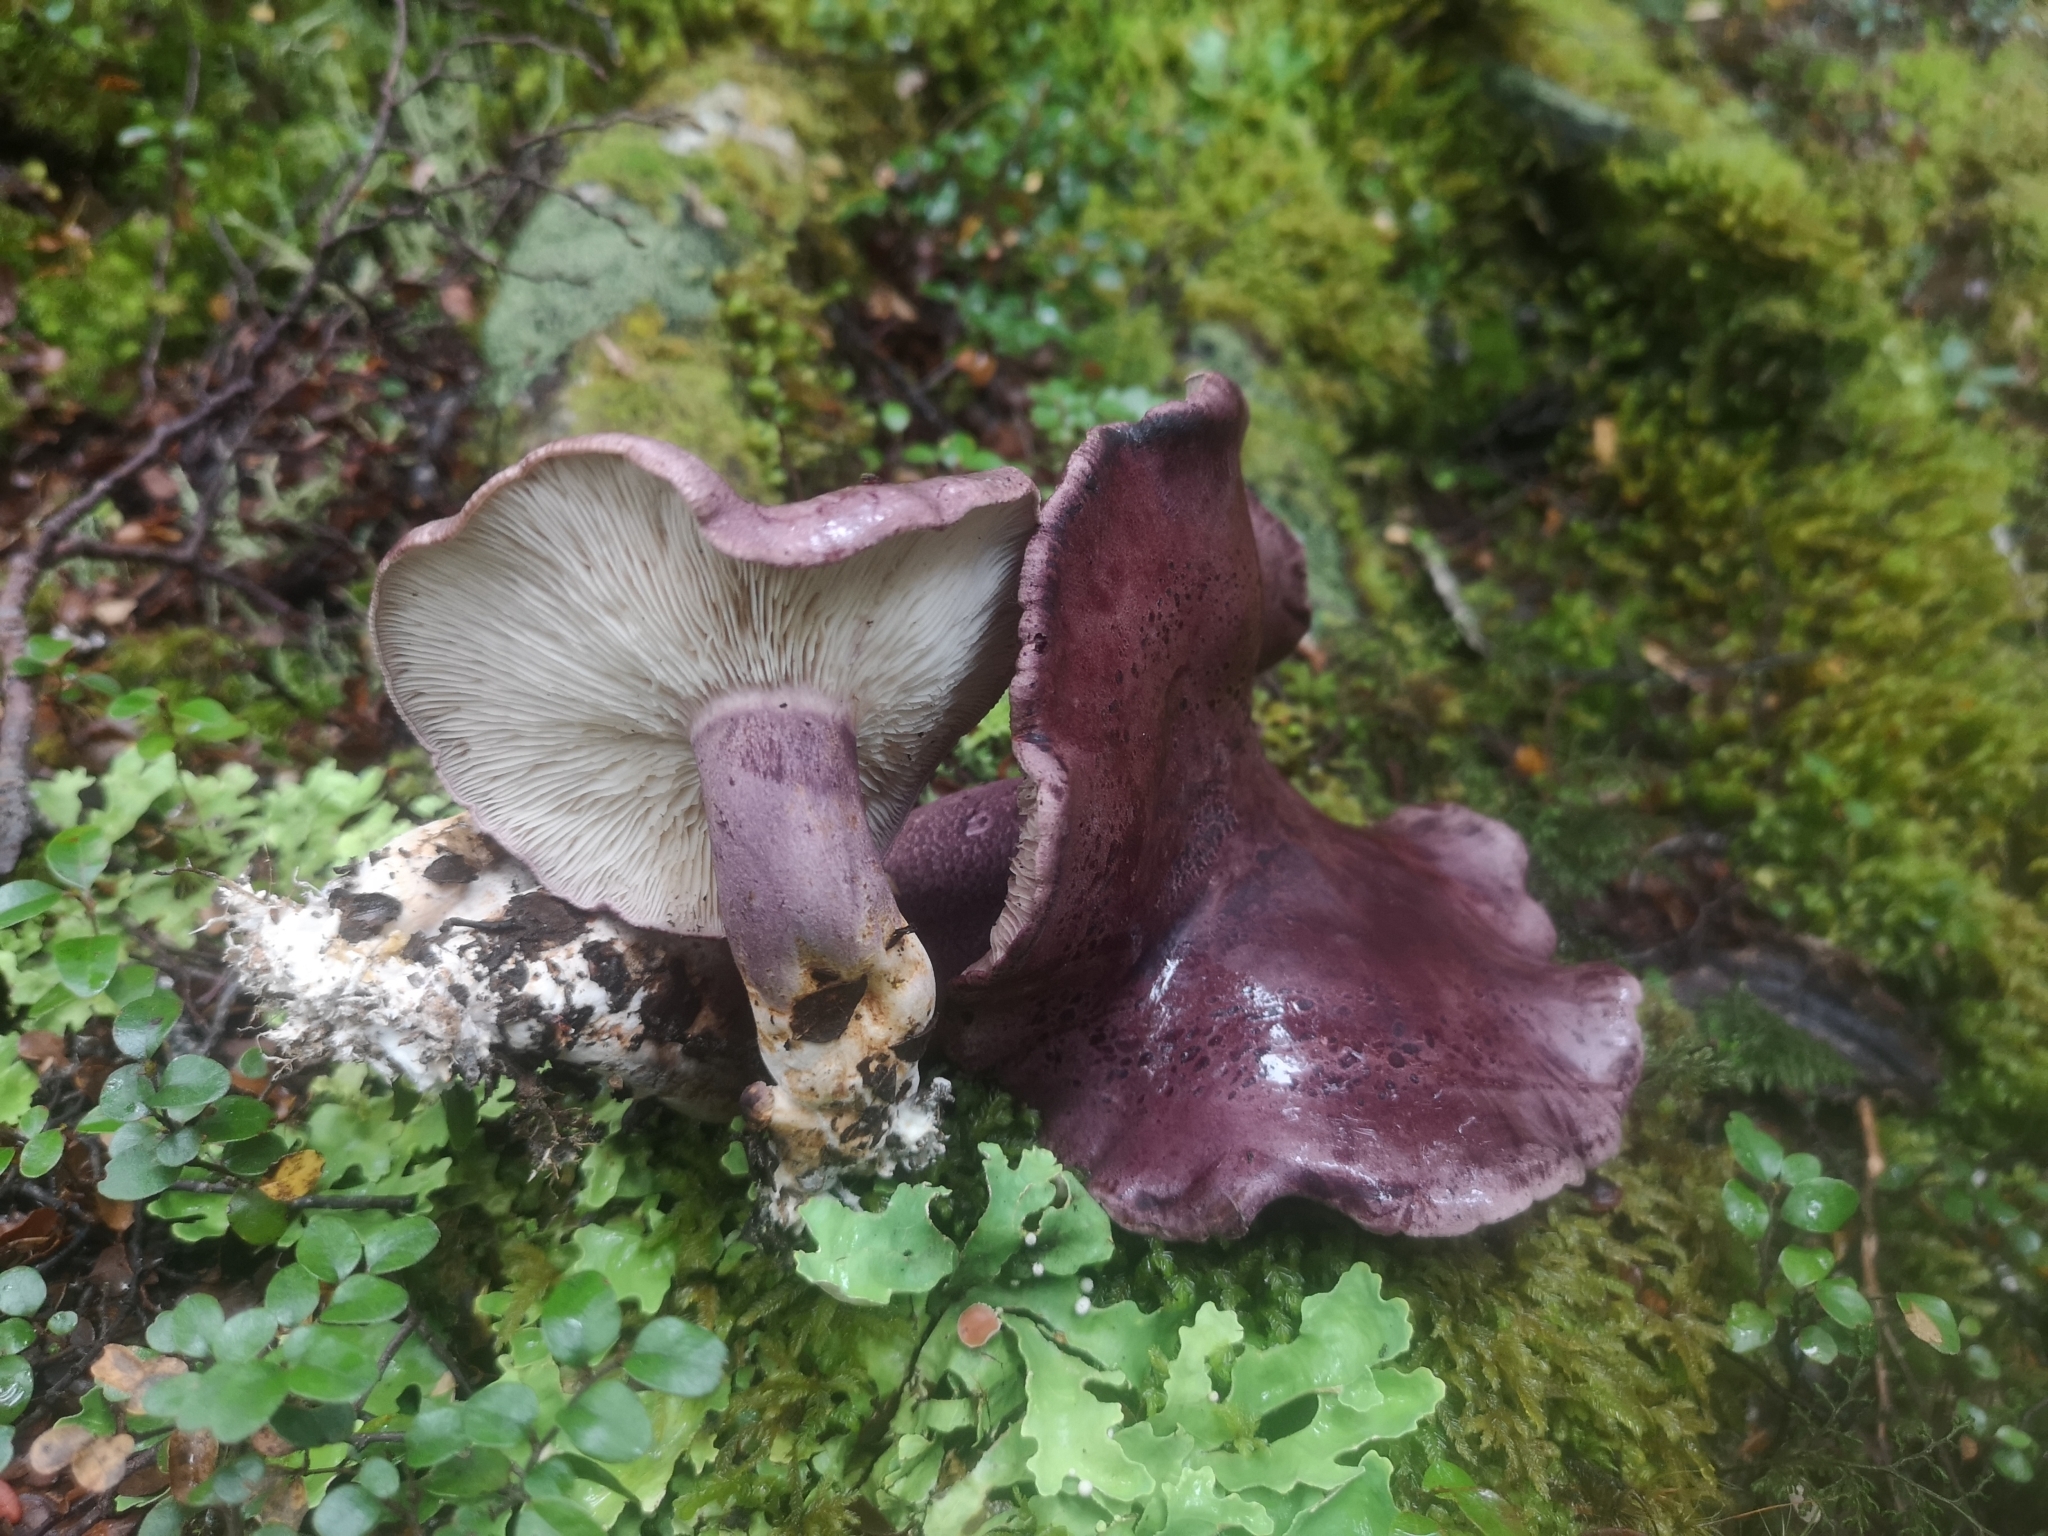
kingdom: Fungi
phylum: Basidiomycota
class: Agaricomycetes
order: Agaricales
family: Tricholomataceae
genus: Leucopaxillus
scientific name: Leucopaxillus lilacinus
